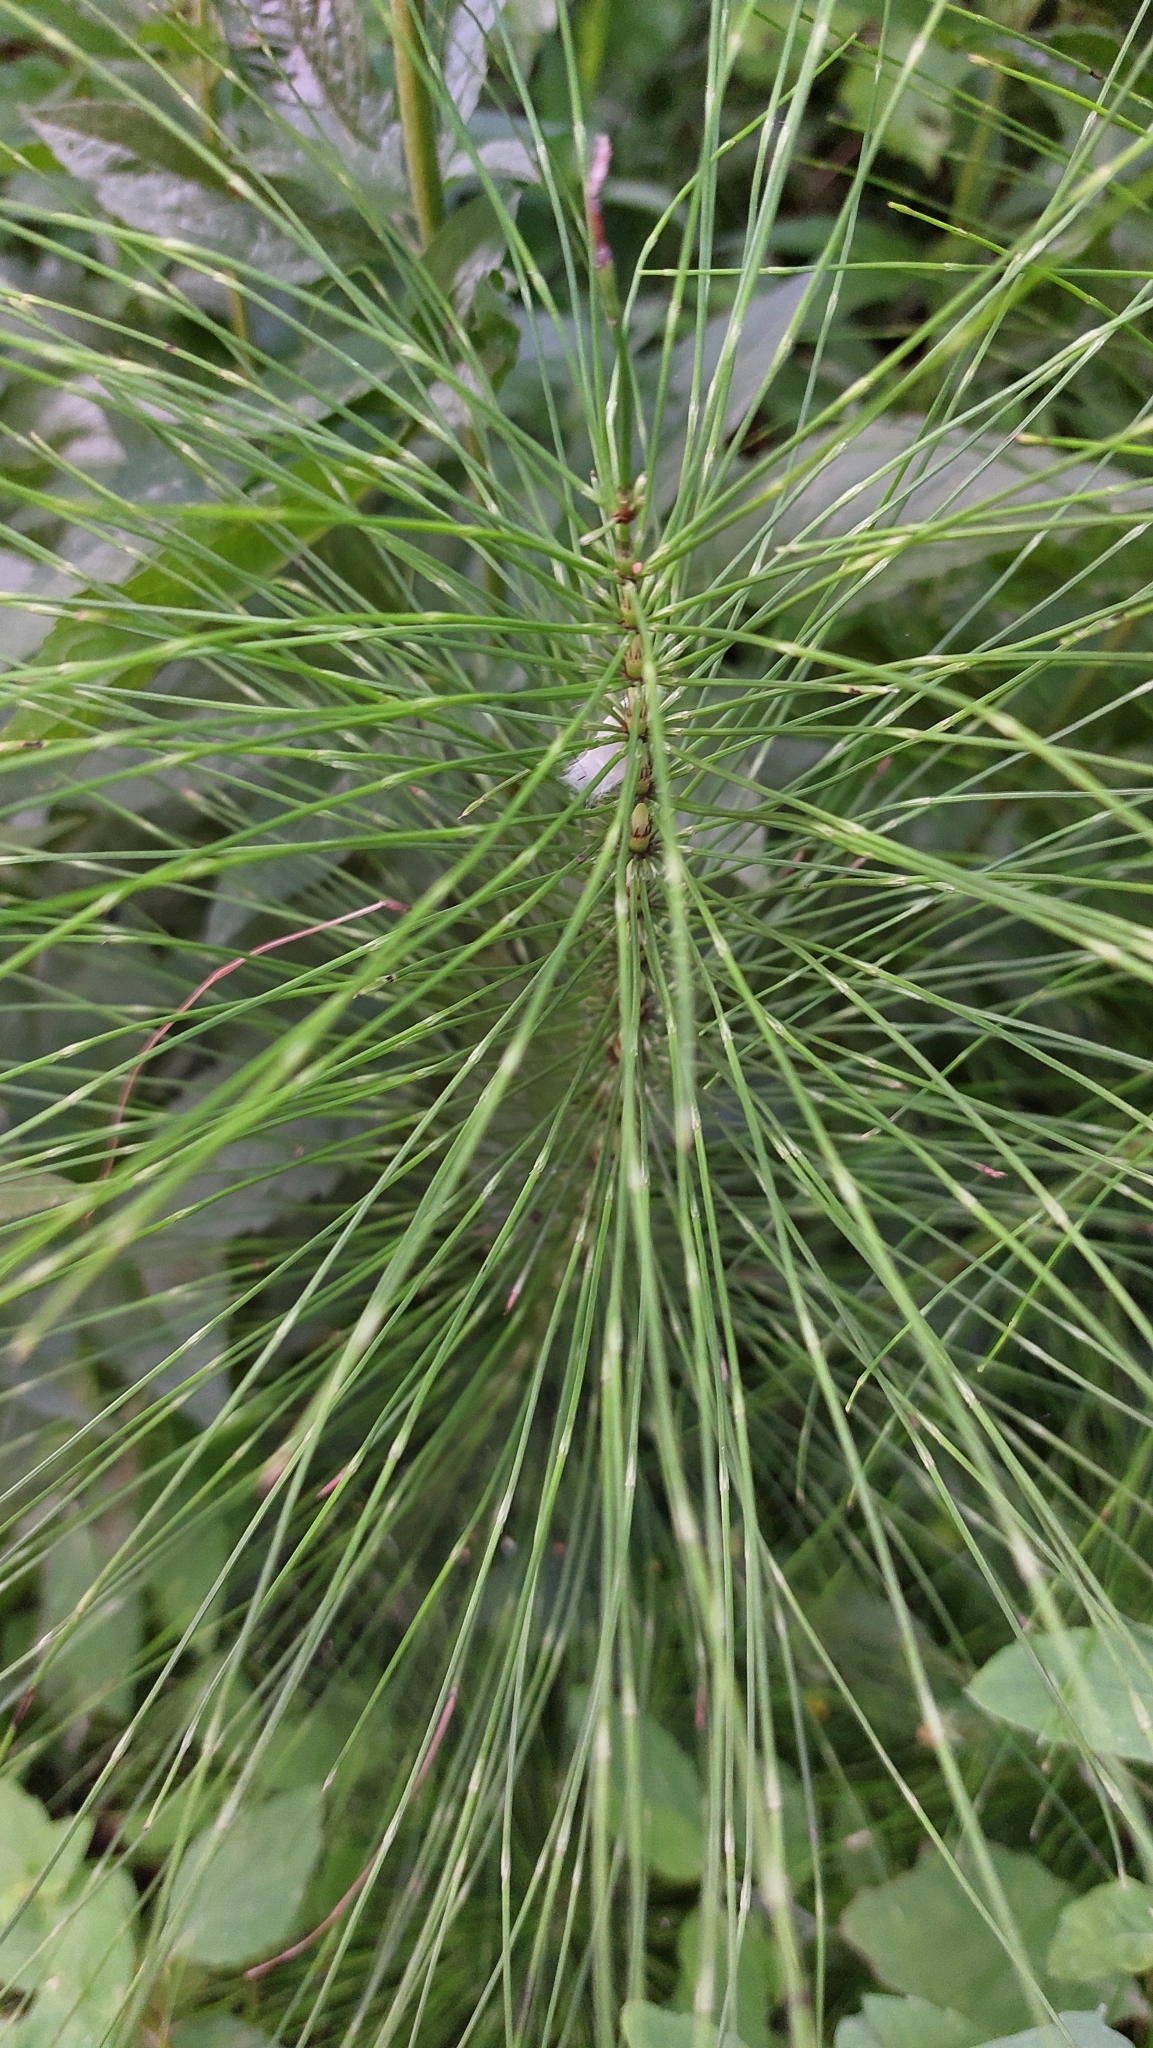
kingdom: Plantae
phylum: Tracheophyta
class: Polypodiopsida
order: Equisetales
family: Equisetaceae
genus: Equisetum
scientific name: Equisetum telmateia
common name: Great horsetail
